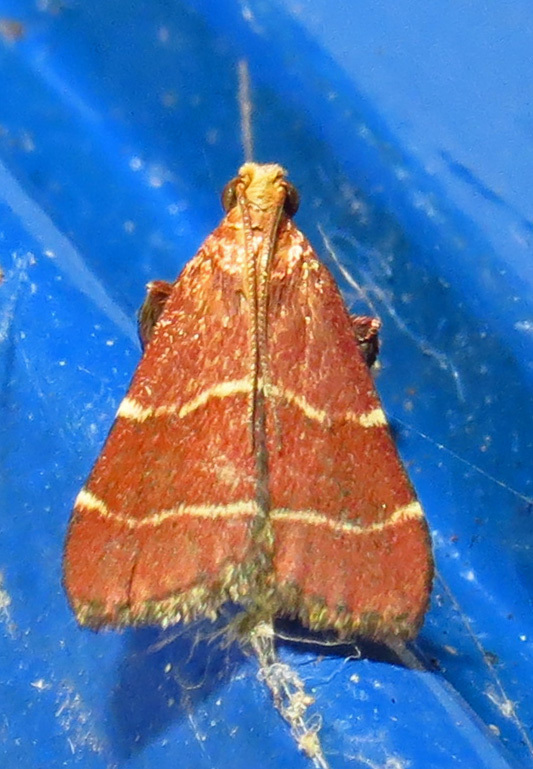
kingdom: Animalia
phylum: Arthropoda
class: Insecta
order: Lepidoptera
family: Pyralidae
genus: Arta
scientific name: Arta statalis
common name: Posturing arta moth
